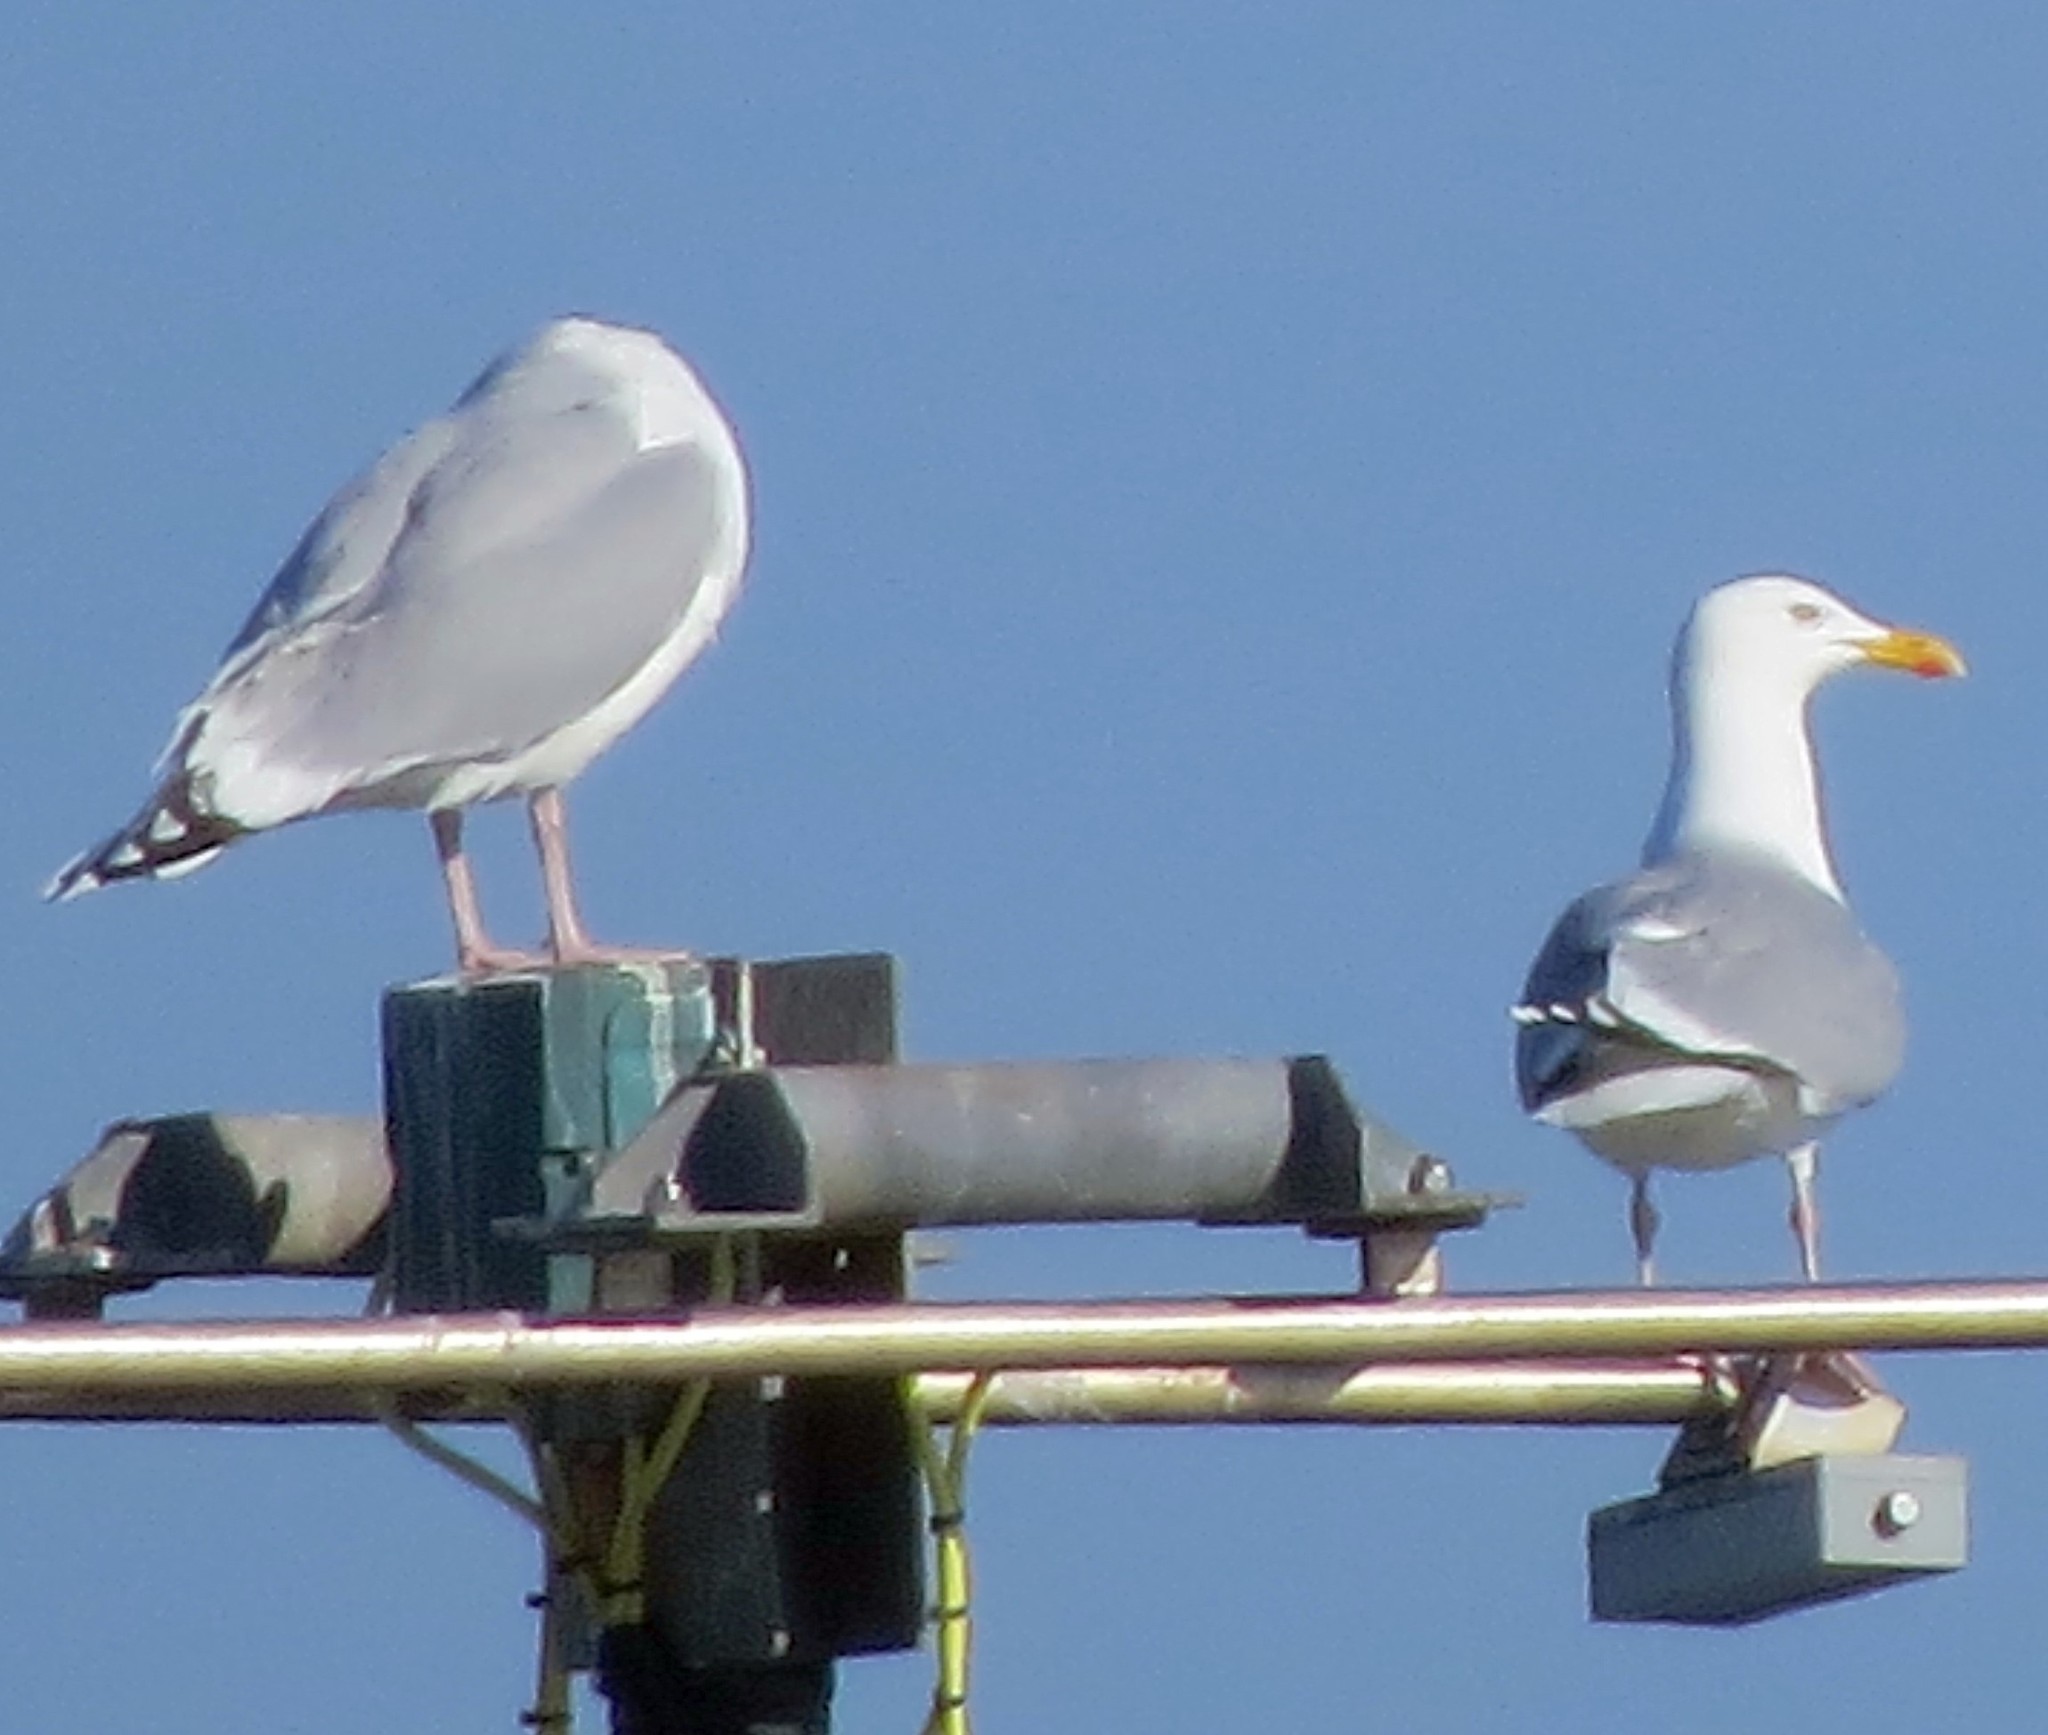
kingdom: Animalia
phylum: Chordata
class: Aves
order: Charadriiformes
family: Laridae
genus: Larus
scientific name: Larus argentatus
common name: Herring gull
